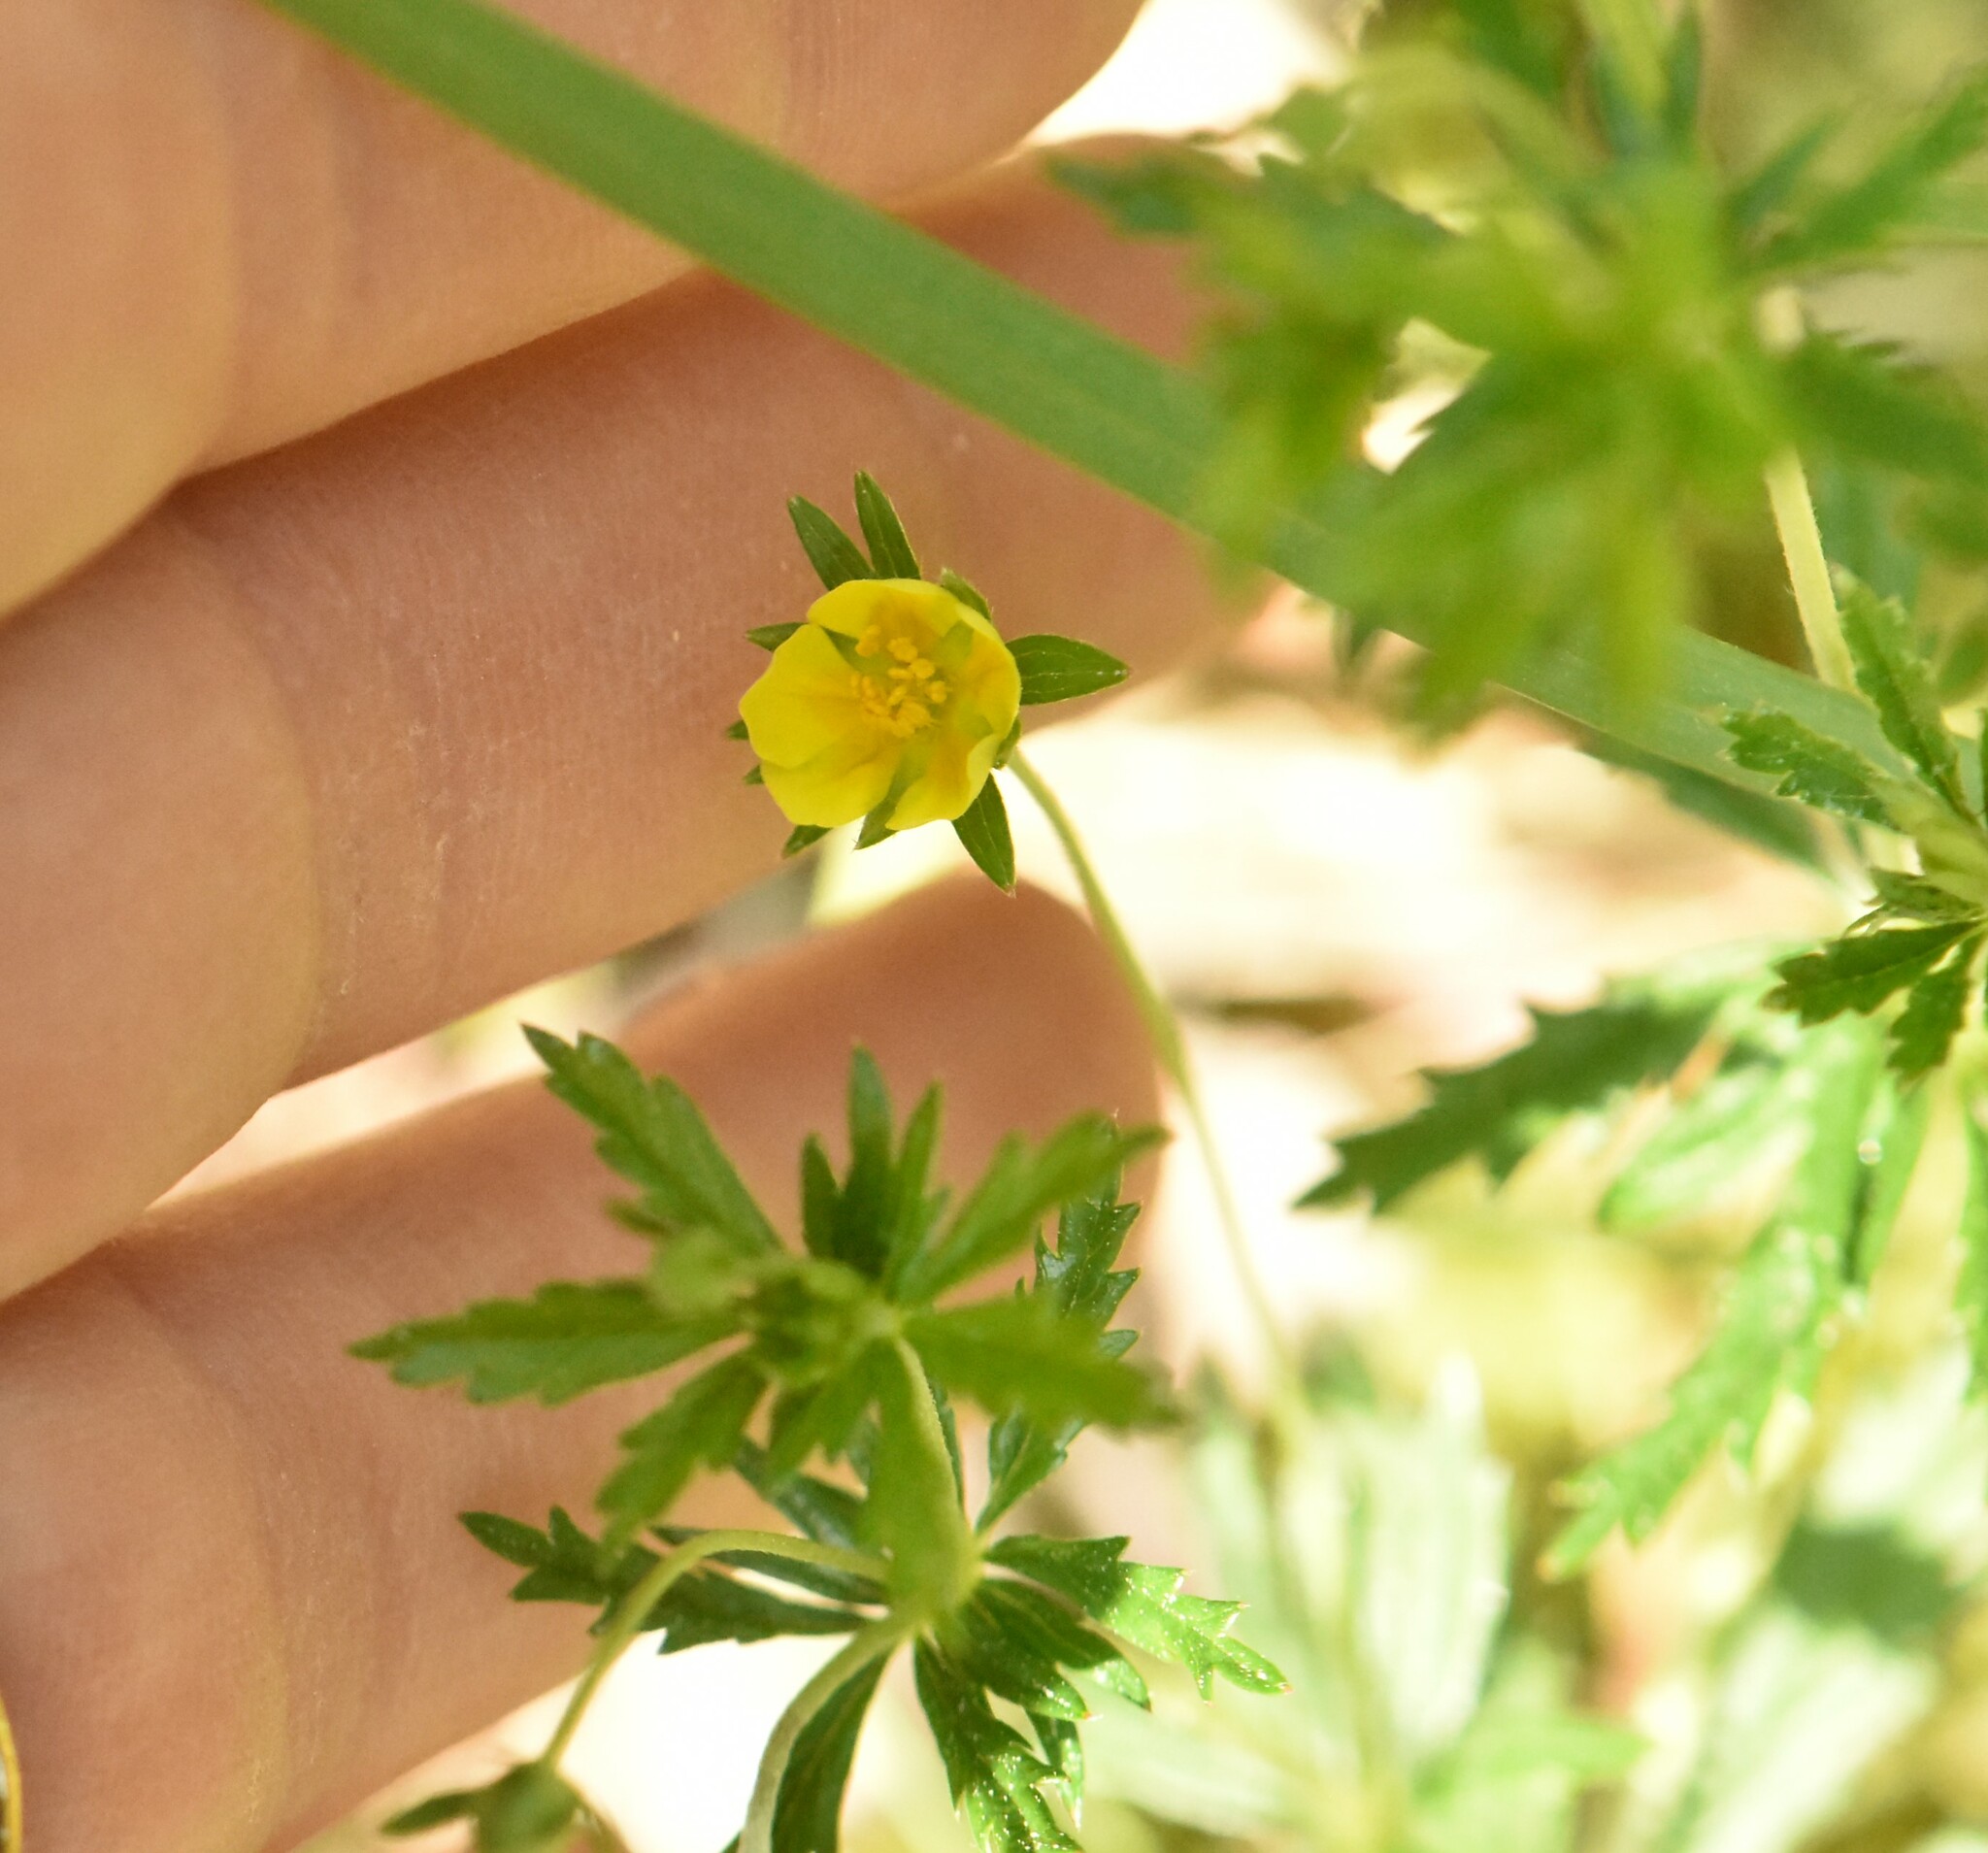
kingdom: Plantae
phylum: Tracheophyta
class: Magnoliopsida
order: Rosales
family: Rosaceae
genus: Potentilla
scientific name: Potentilla erecta
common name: Tormentil
